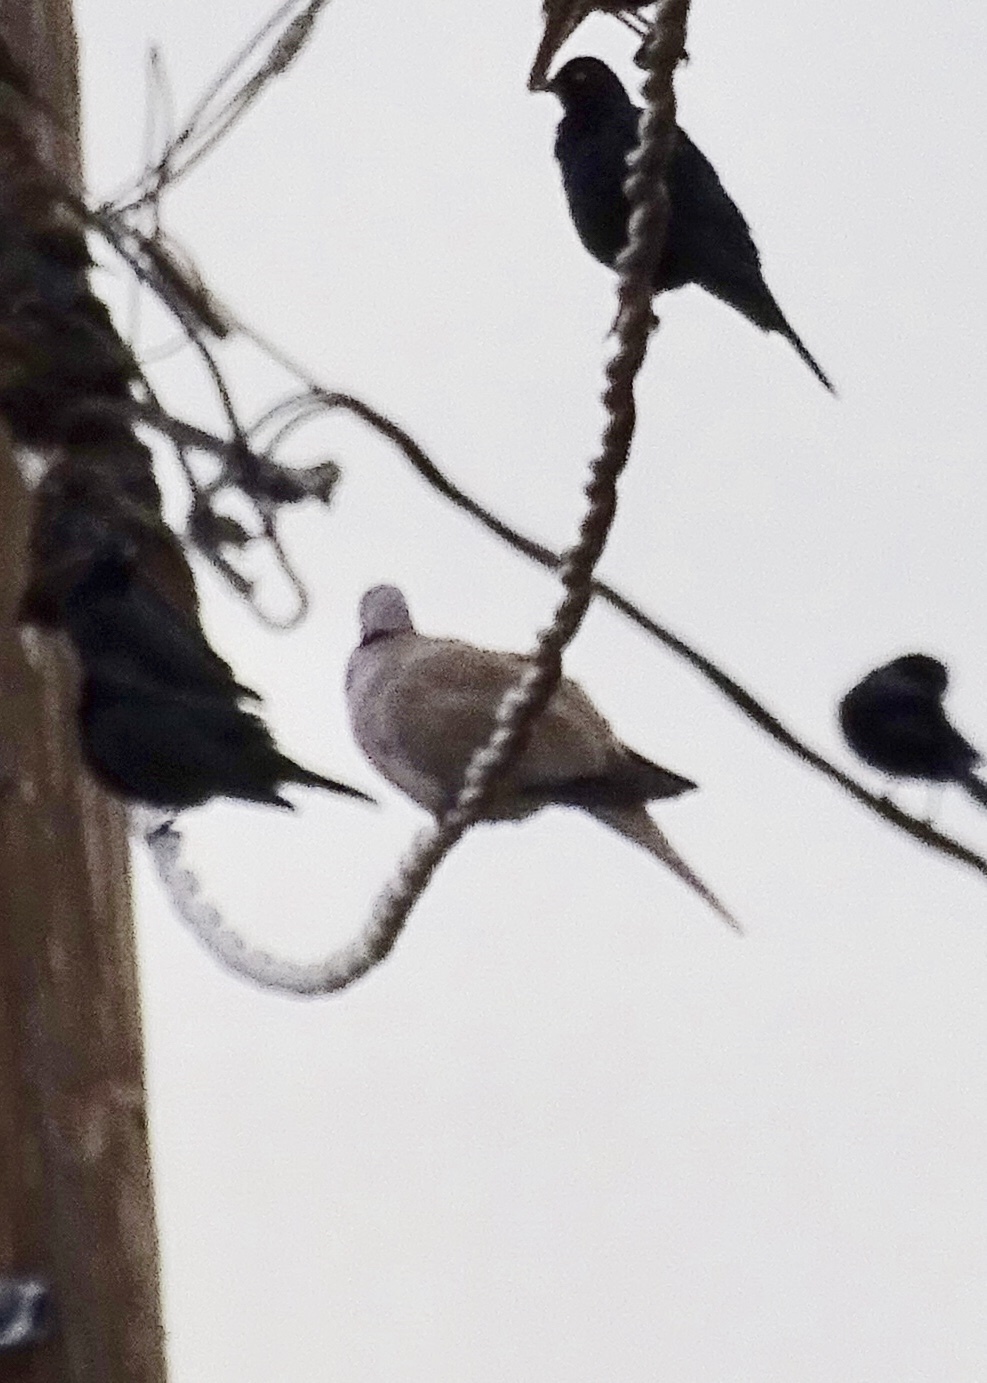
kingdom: Animalia
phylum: Chordata
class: Aves
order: Columbiformes
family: Columbidae
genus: Streptopelia
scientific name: Streptopelia decaocto
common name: Eurasian collared dove
